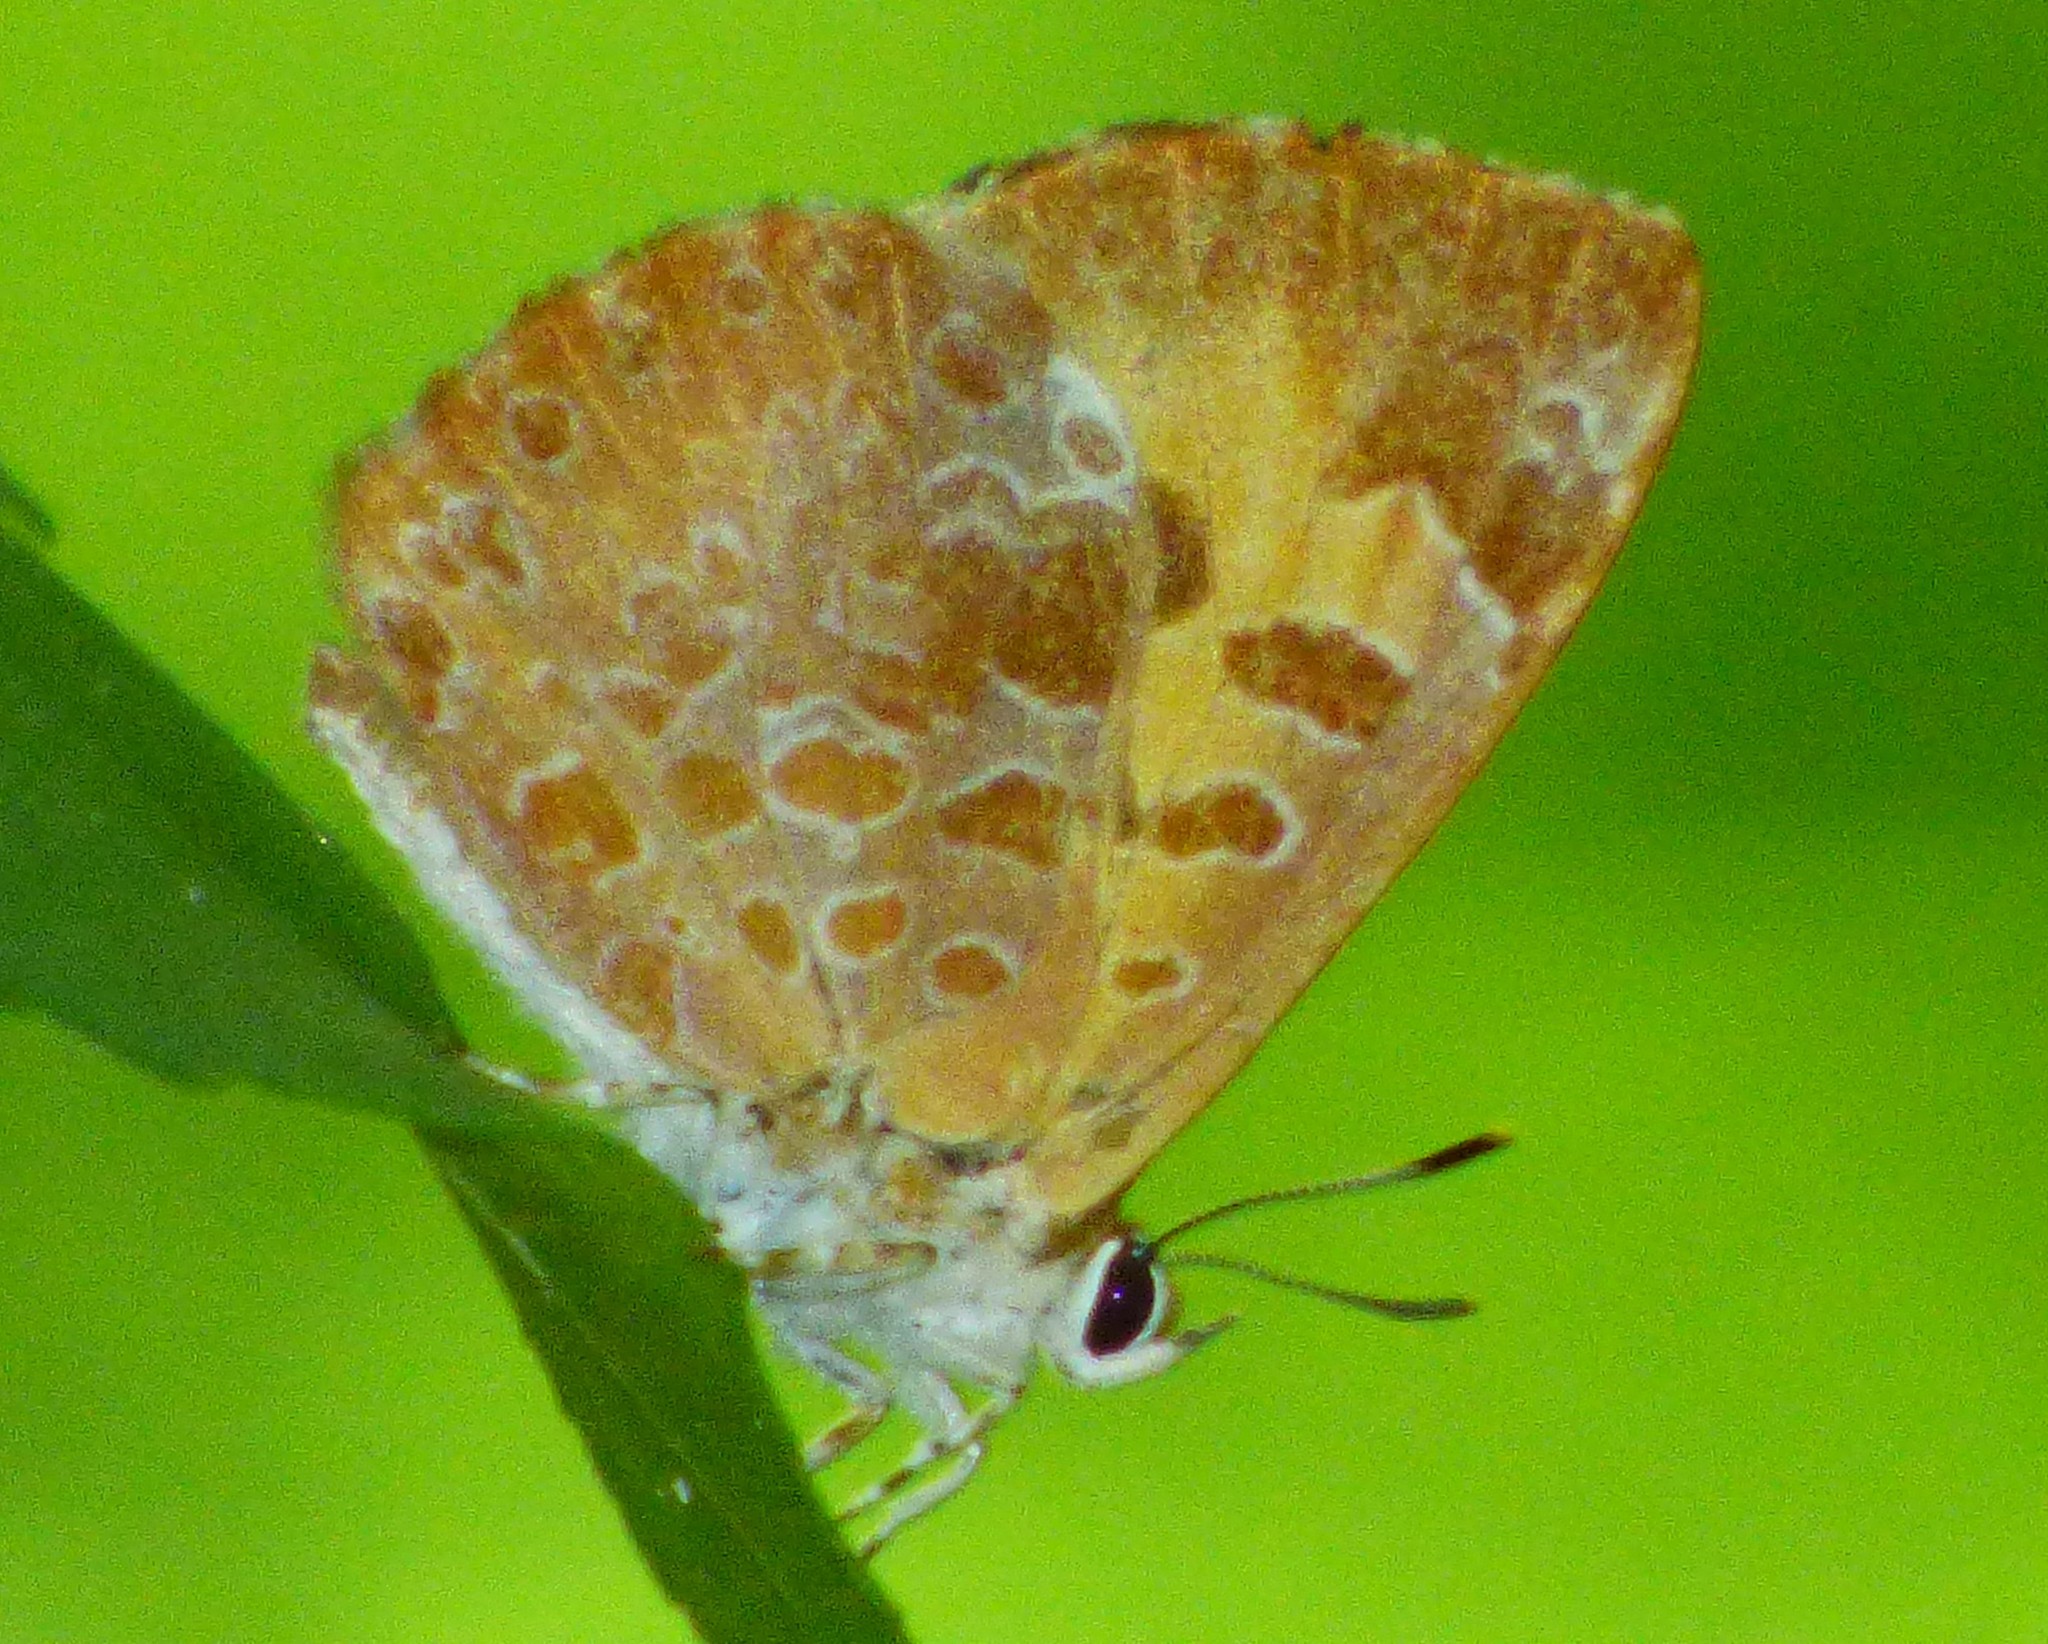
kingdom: Animalia
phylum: Arthropoda
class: Insecta
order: Lepidoptera
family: Lycaenidae
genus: Feniseca
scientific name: Feniseca tarquinius
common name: Harvester
